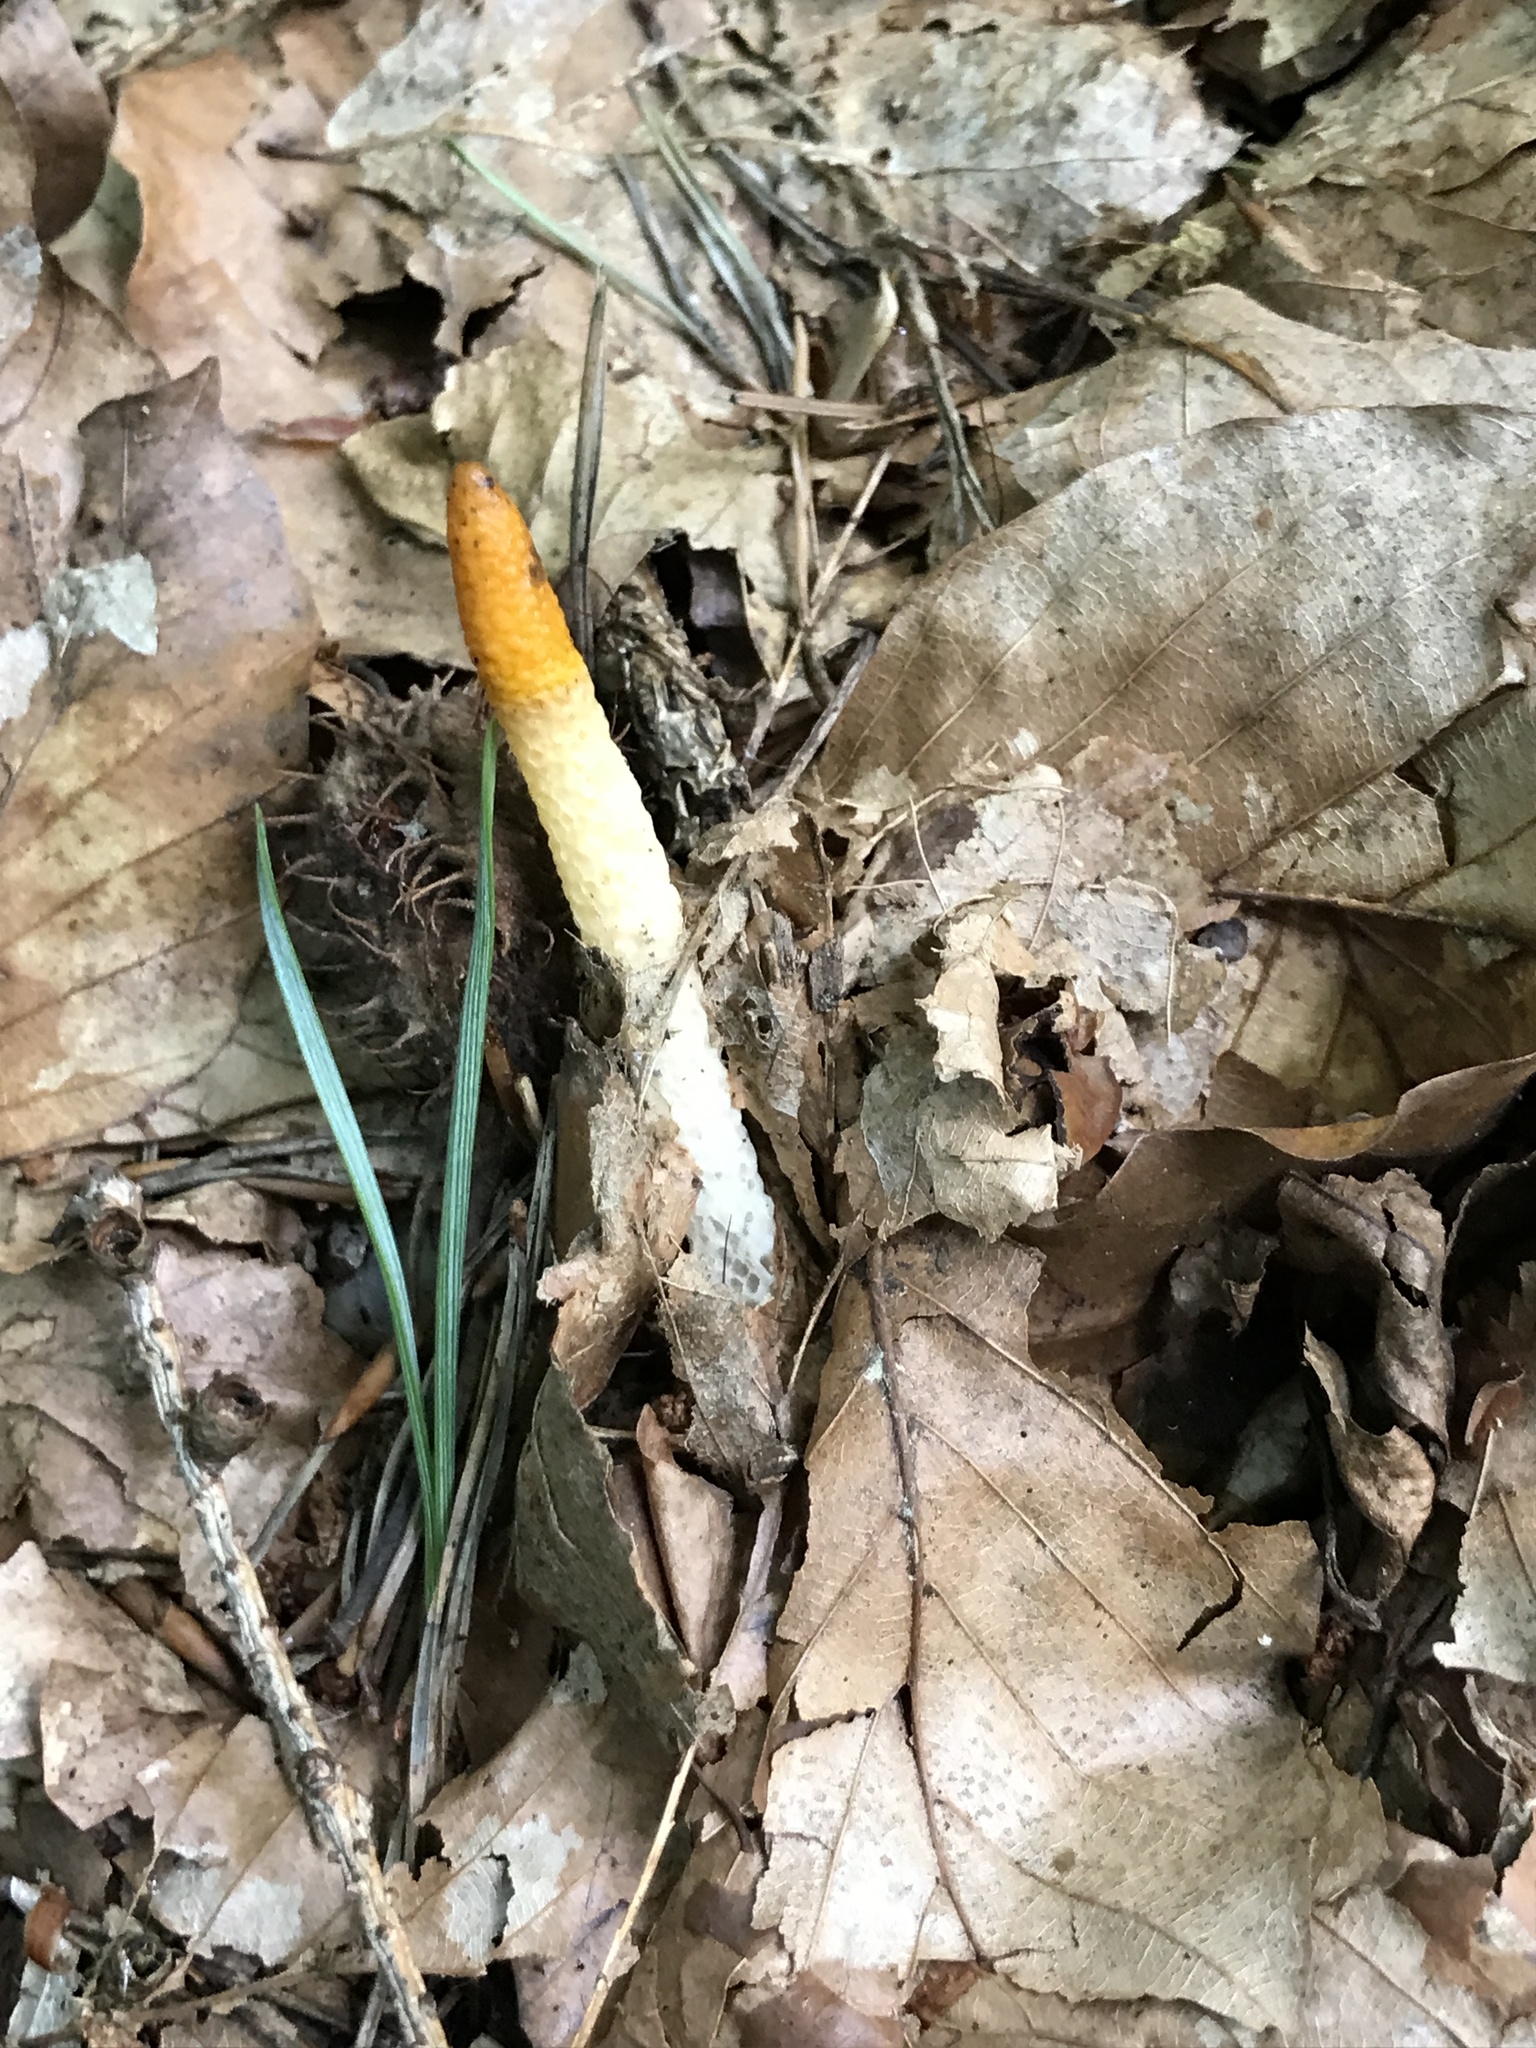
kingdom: Fungi
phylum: Basidiomycota
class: Agaricomycetes
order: Phallales
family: Phallaceae
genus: Mutinus
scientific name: Mutinus caninus
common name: Dog stinkhorn
